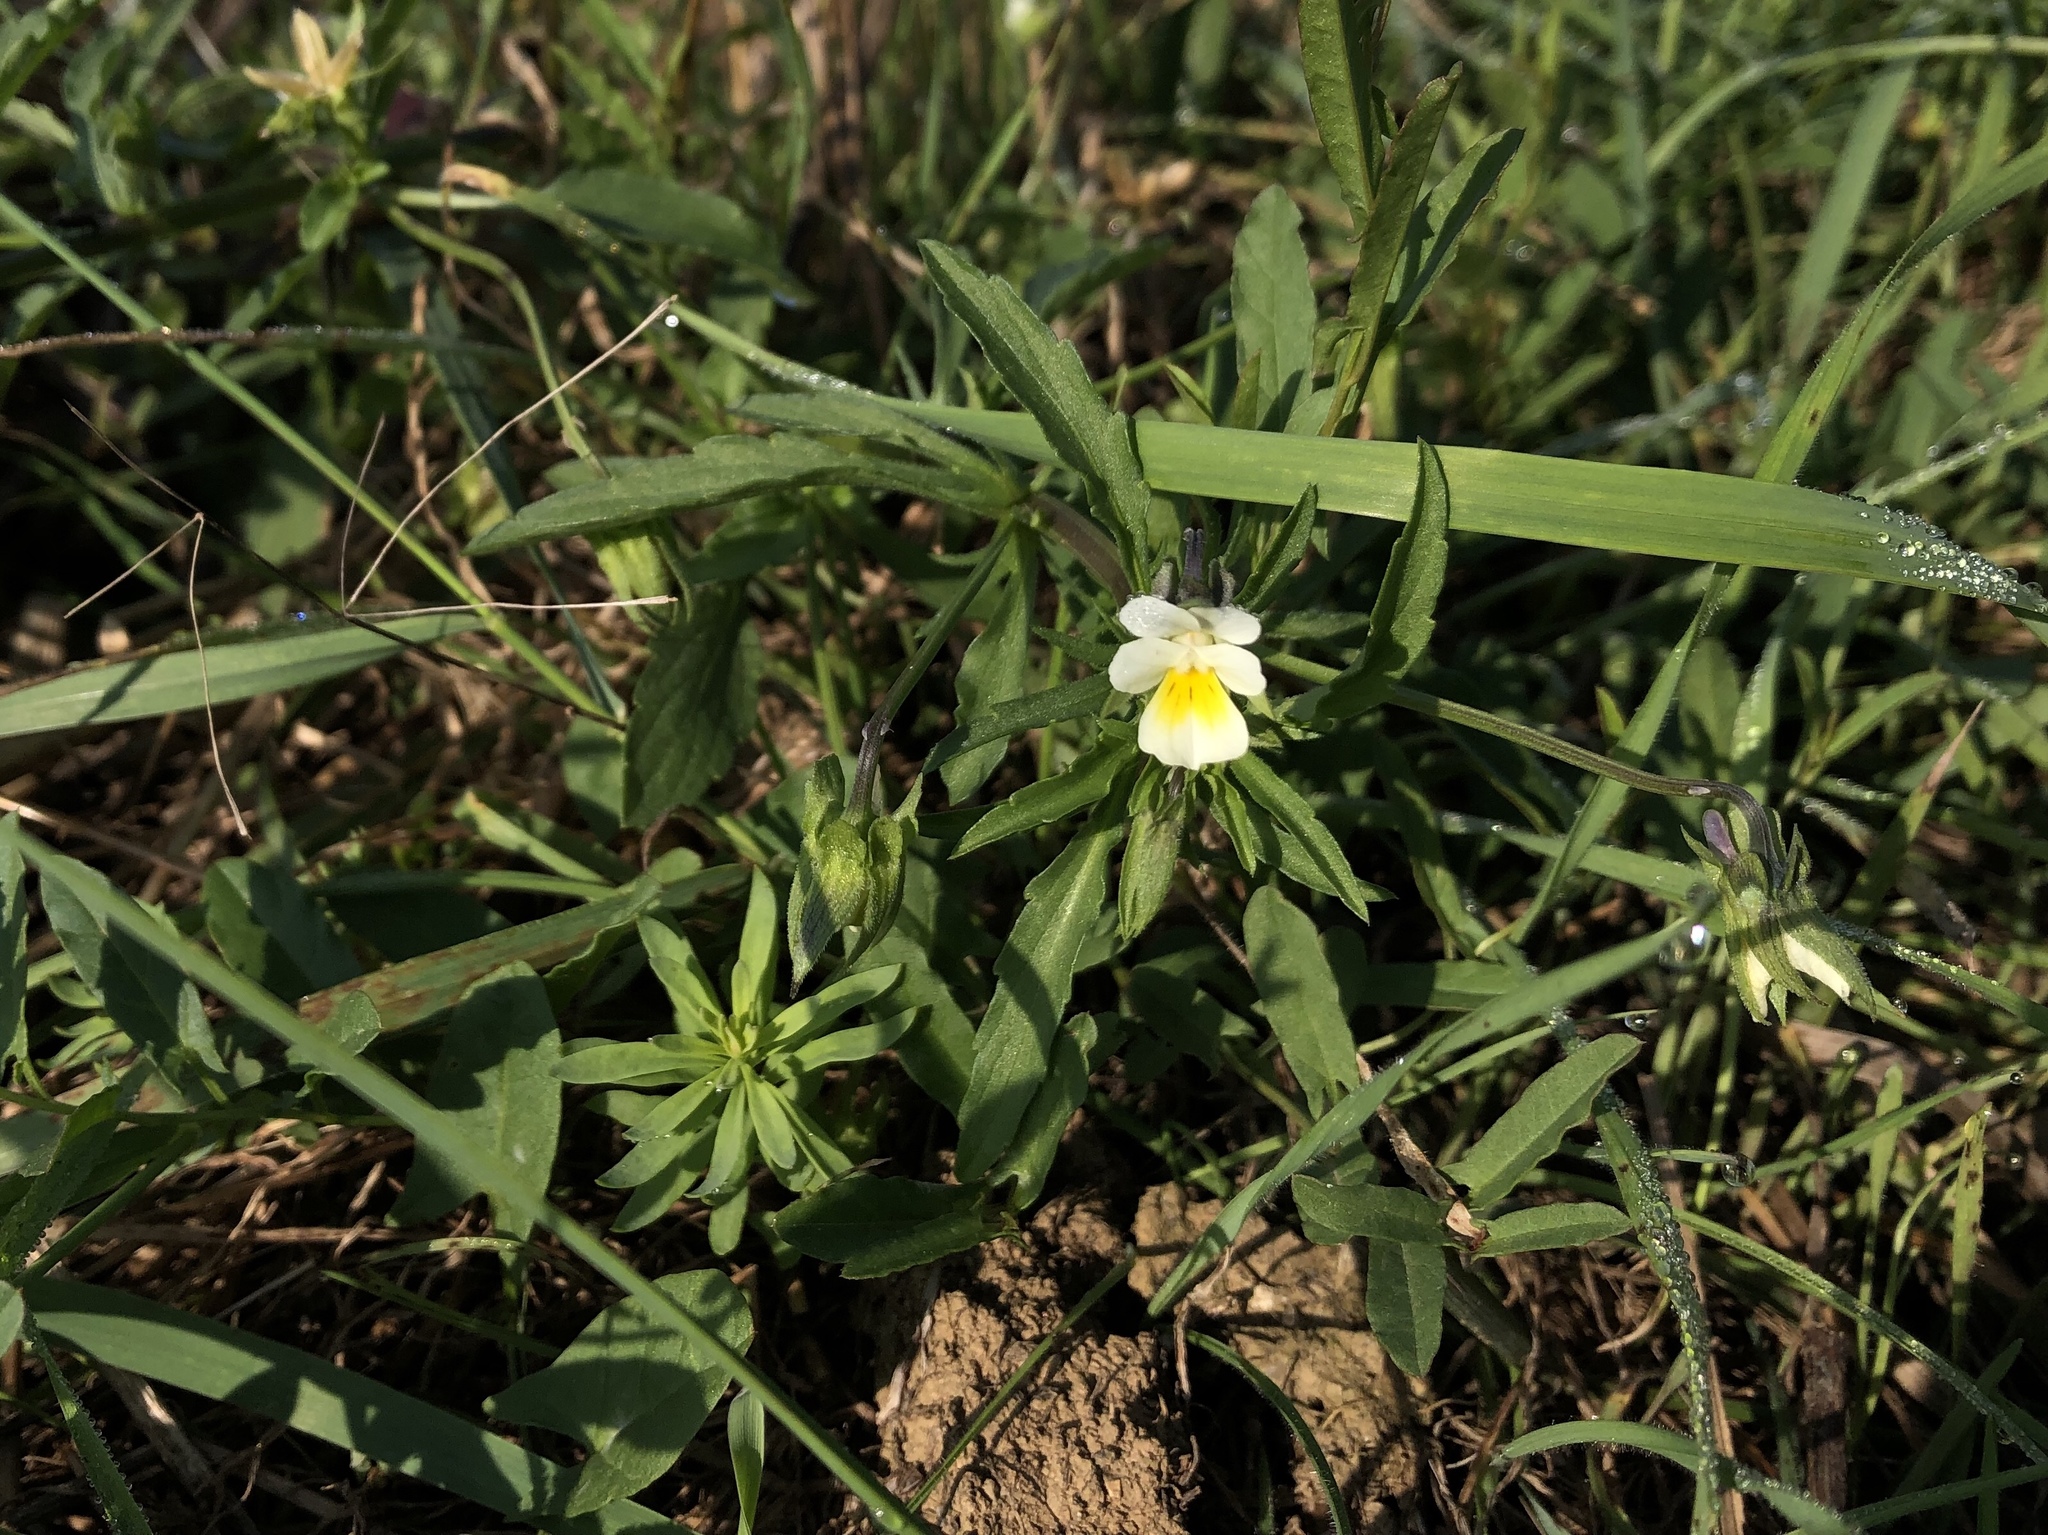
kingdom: Plantae
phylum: Tracheophyta
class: Magnoliopsida
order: Malpighiales
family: Violaceae
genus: Viola
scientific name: Viola arvensis
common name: Field pansy
